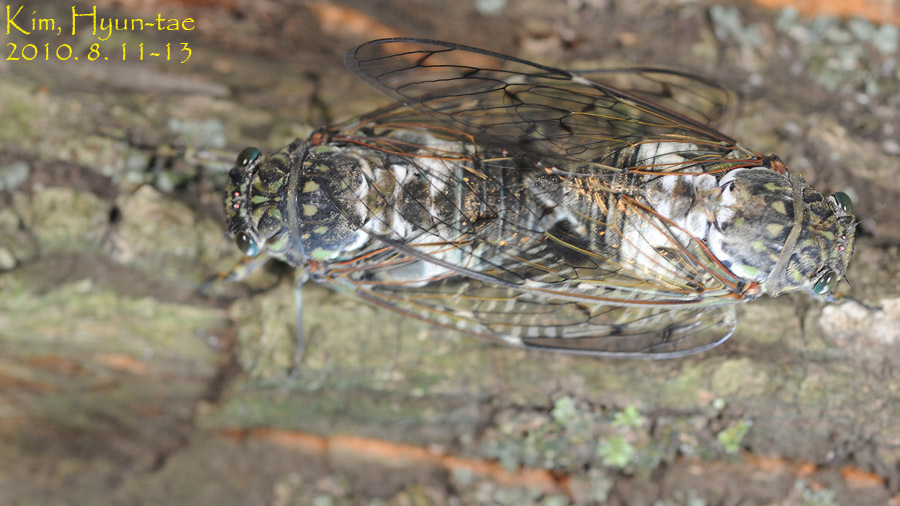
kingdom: Animalia
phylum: Arthropoda
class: Insecta
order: Hemiptera
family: Cicadidae
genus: Hyalessa
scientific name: Hyalessa maculaticollis
